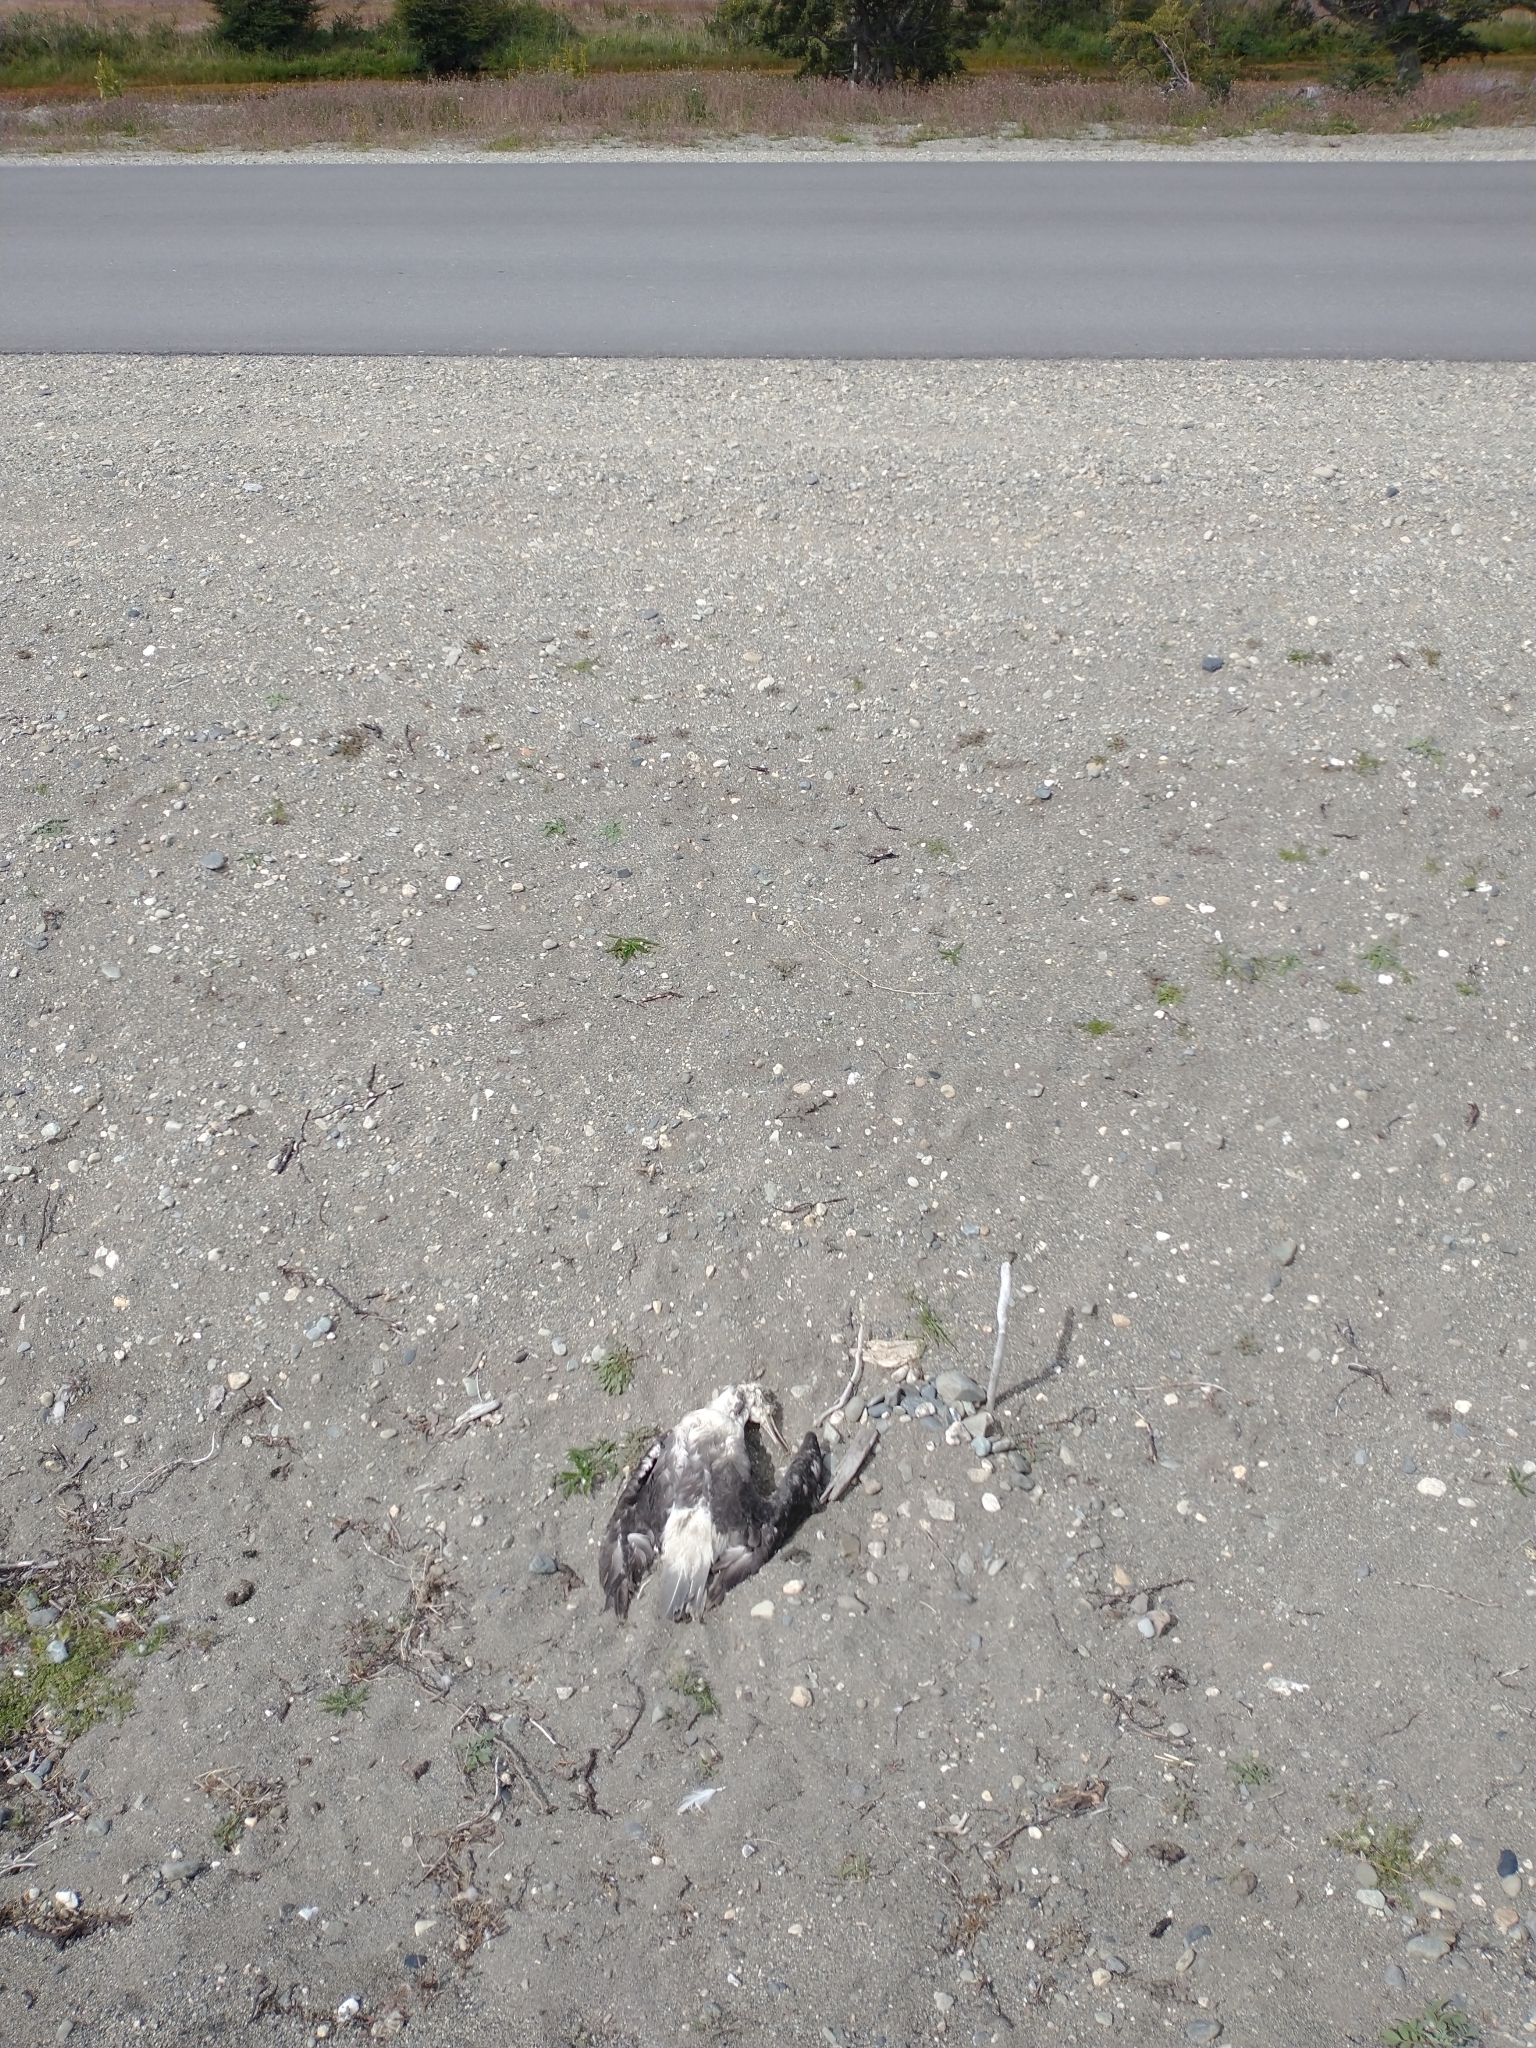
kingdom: Animalia
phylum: Chordata
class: Aves
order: Procellariiformes
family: Diomedeidae
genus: Thalassarche
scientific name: Thalassarche melanophris
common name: Black-browed albatross
